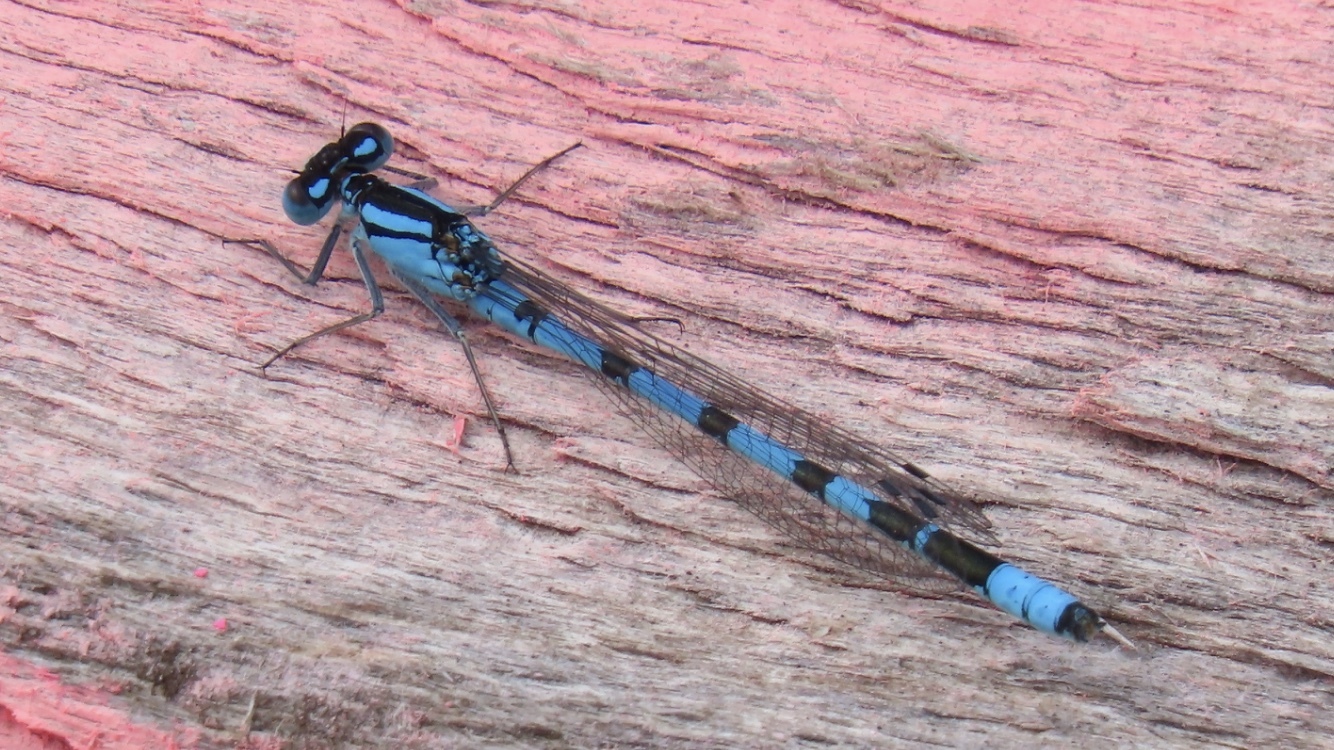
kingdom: Animalia
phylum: Arthropoda
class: Insecta
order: Odonata
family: Coenagrionidae
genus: Enallagma
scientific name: Enallagma cyathigerum
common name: Common blue damselfly
